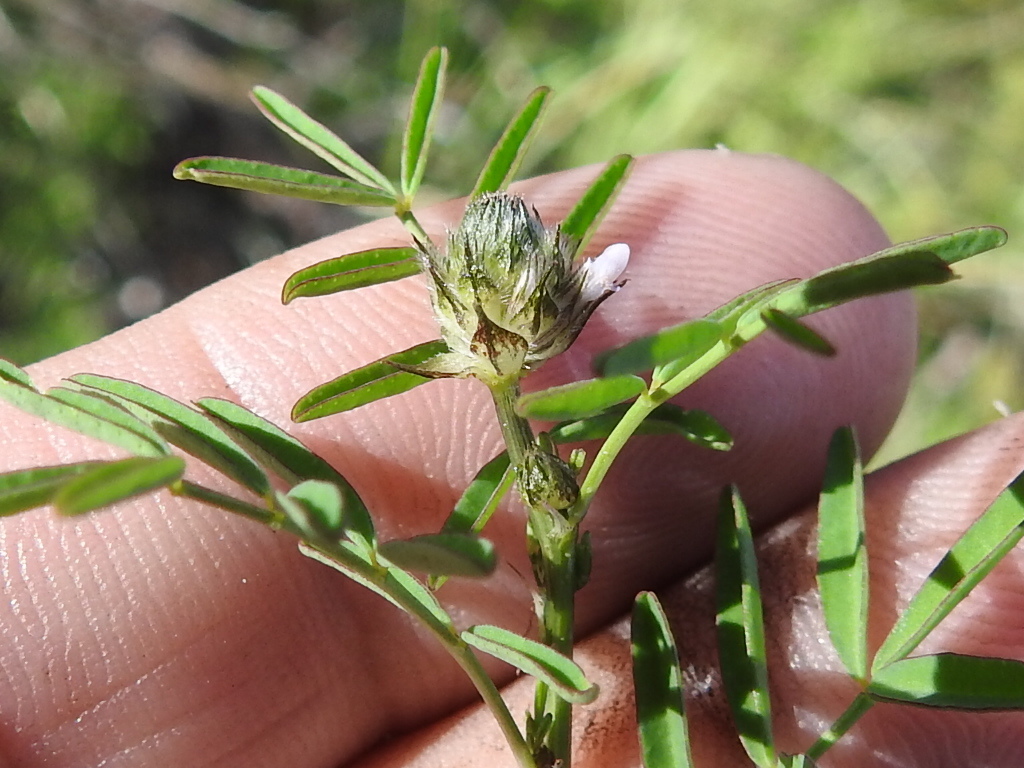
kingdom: Plantae
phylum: Tracheophyta
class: Magnoliopsida
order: Fabales
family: Fabaceae
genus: Dalea
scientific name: Dalea polygonoides
